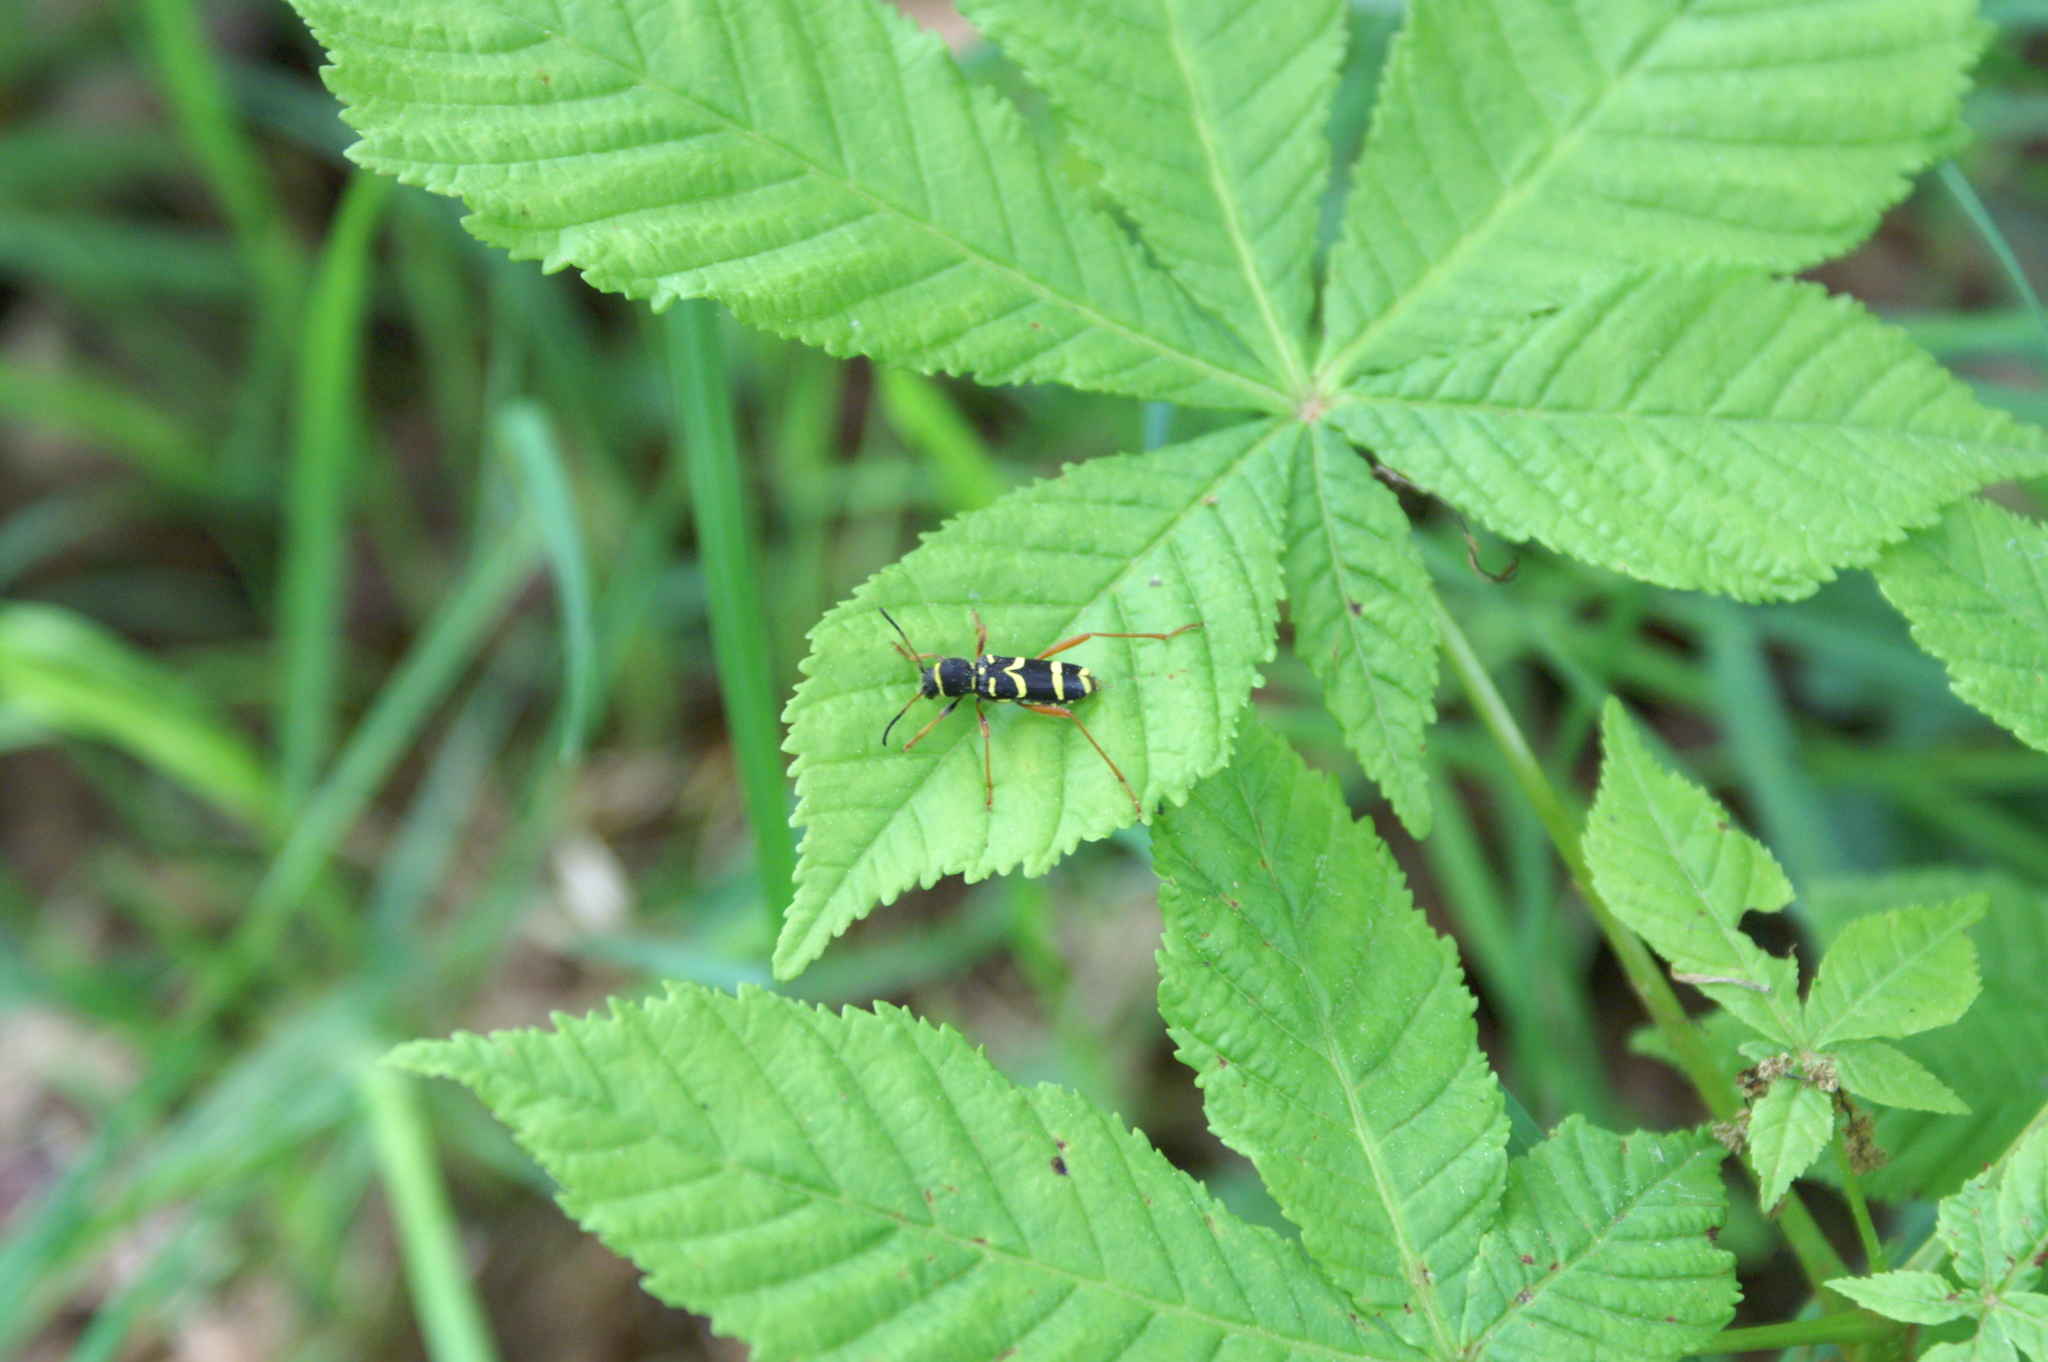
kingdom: Animalia
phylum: Arthropoda
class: Insecta
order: Coleoptera
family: Cerambycidae
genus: Clytus
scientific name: Clytus arietis
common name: Wasp beetle
